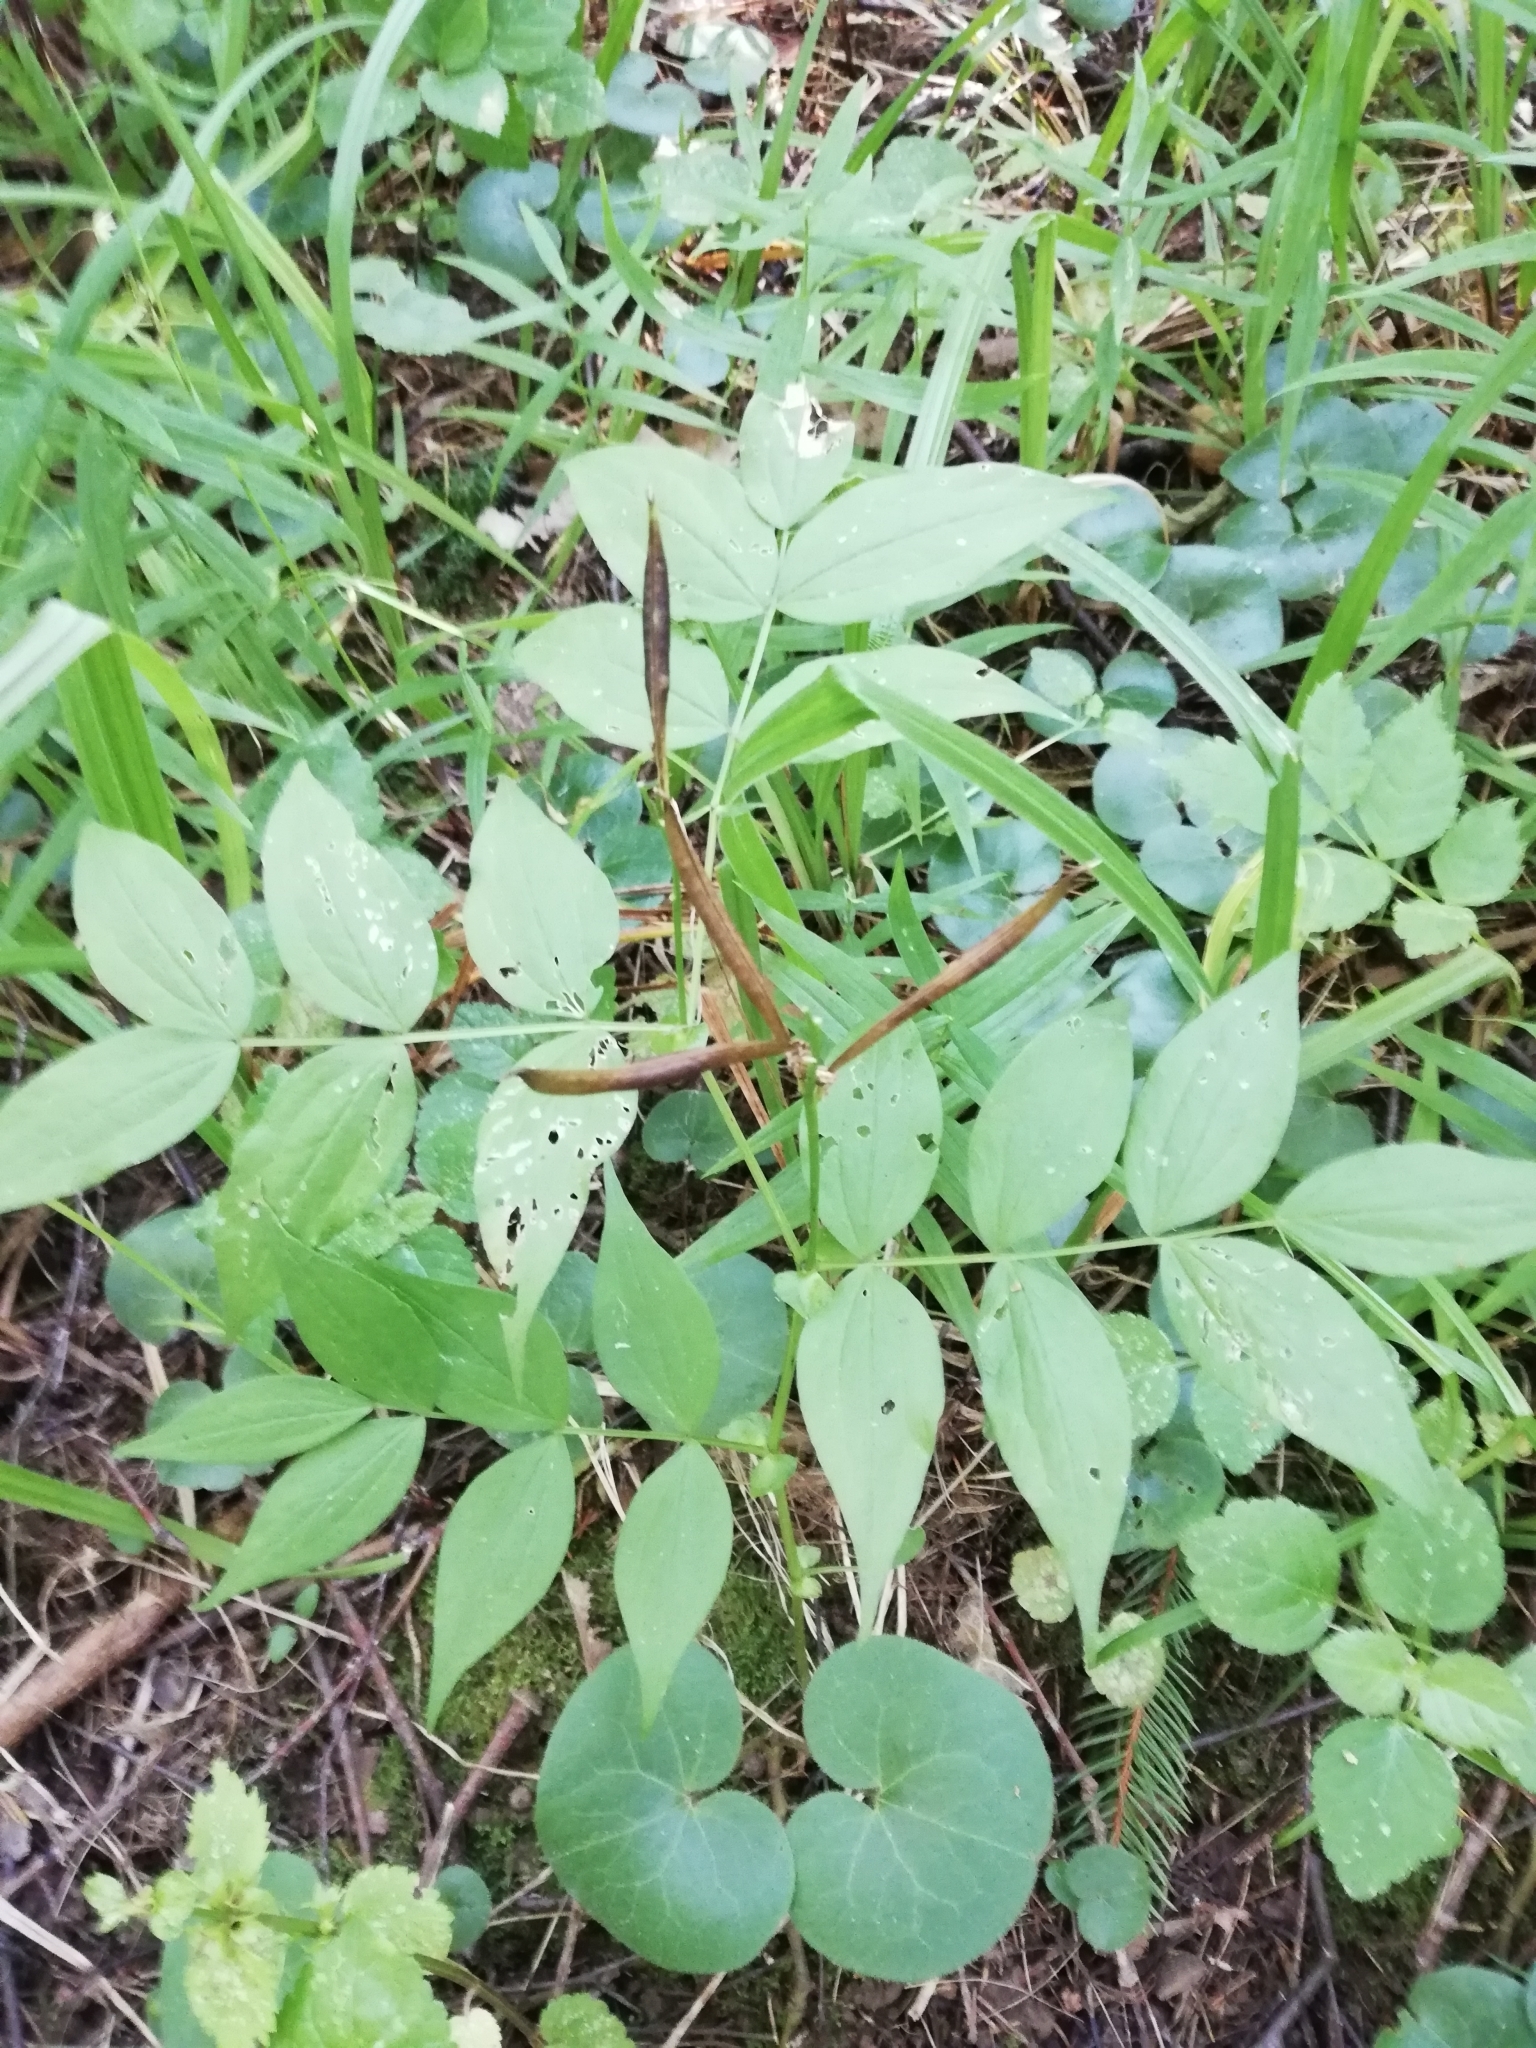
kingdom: Plantae
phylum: Tracheophyta
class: Magnoliopsida
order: Fabales
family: Fabaceae
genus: Lathyrus
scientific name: Lathyrus vernus
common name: Spring pea
